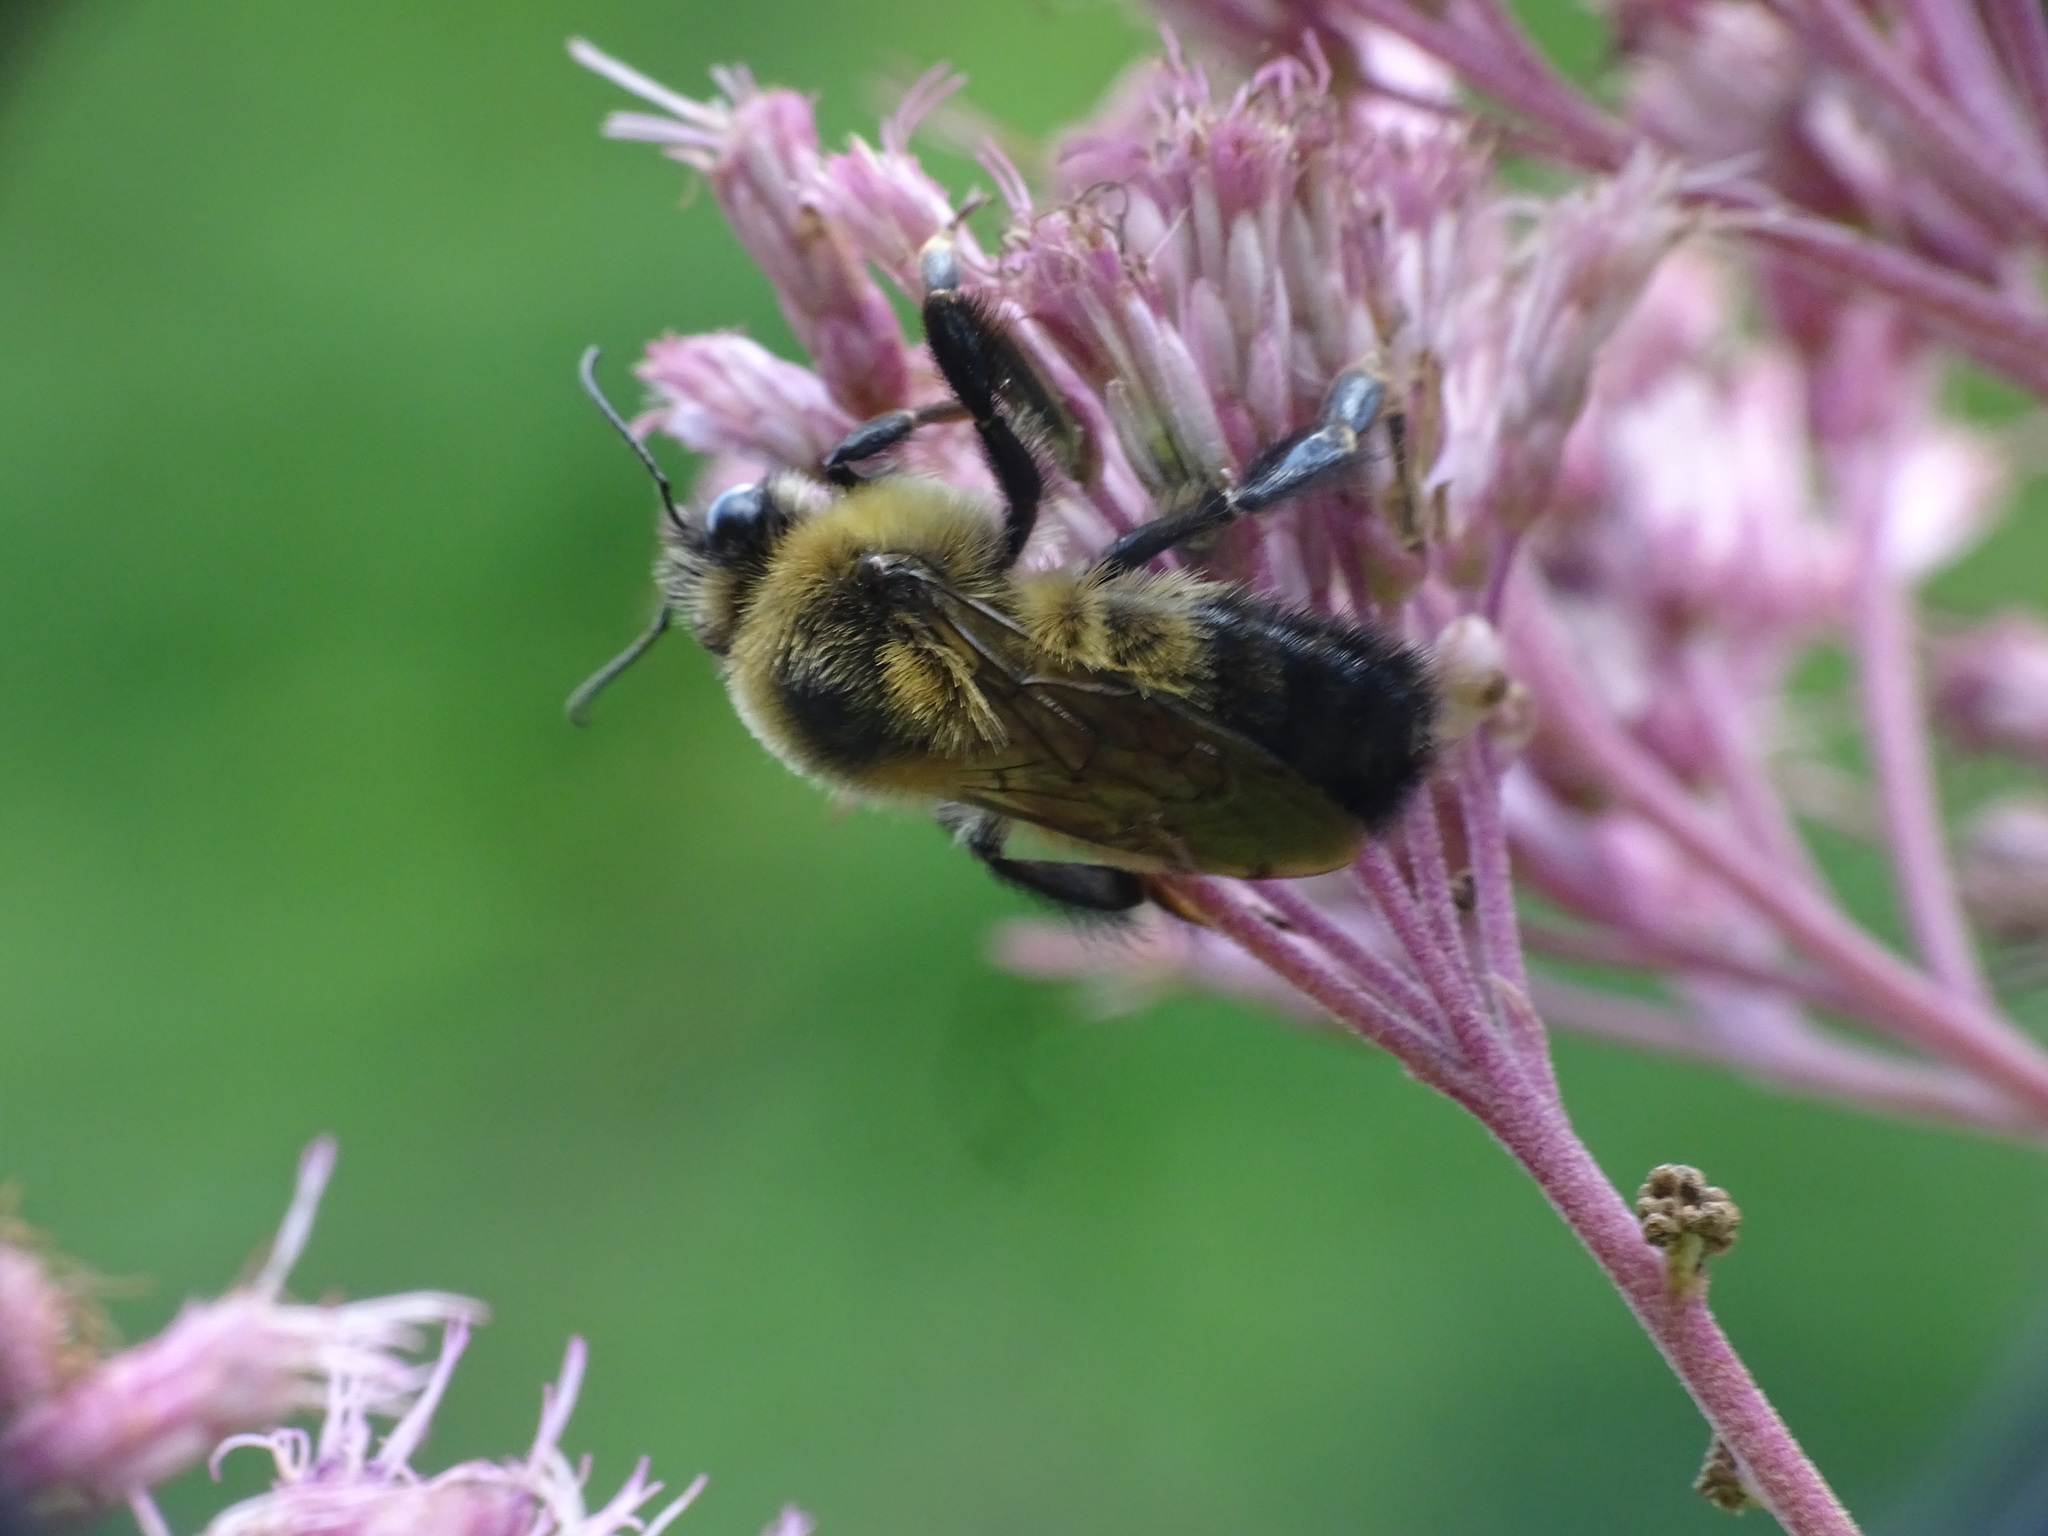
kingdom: Animalia
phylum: Arthropoda
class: Insecta
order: Hymenoptera
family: Apidae
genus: Bombus
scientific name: Bombus rufocinctus
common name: Red-belted bumble bee
